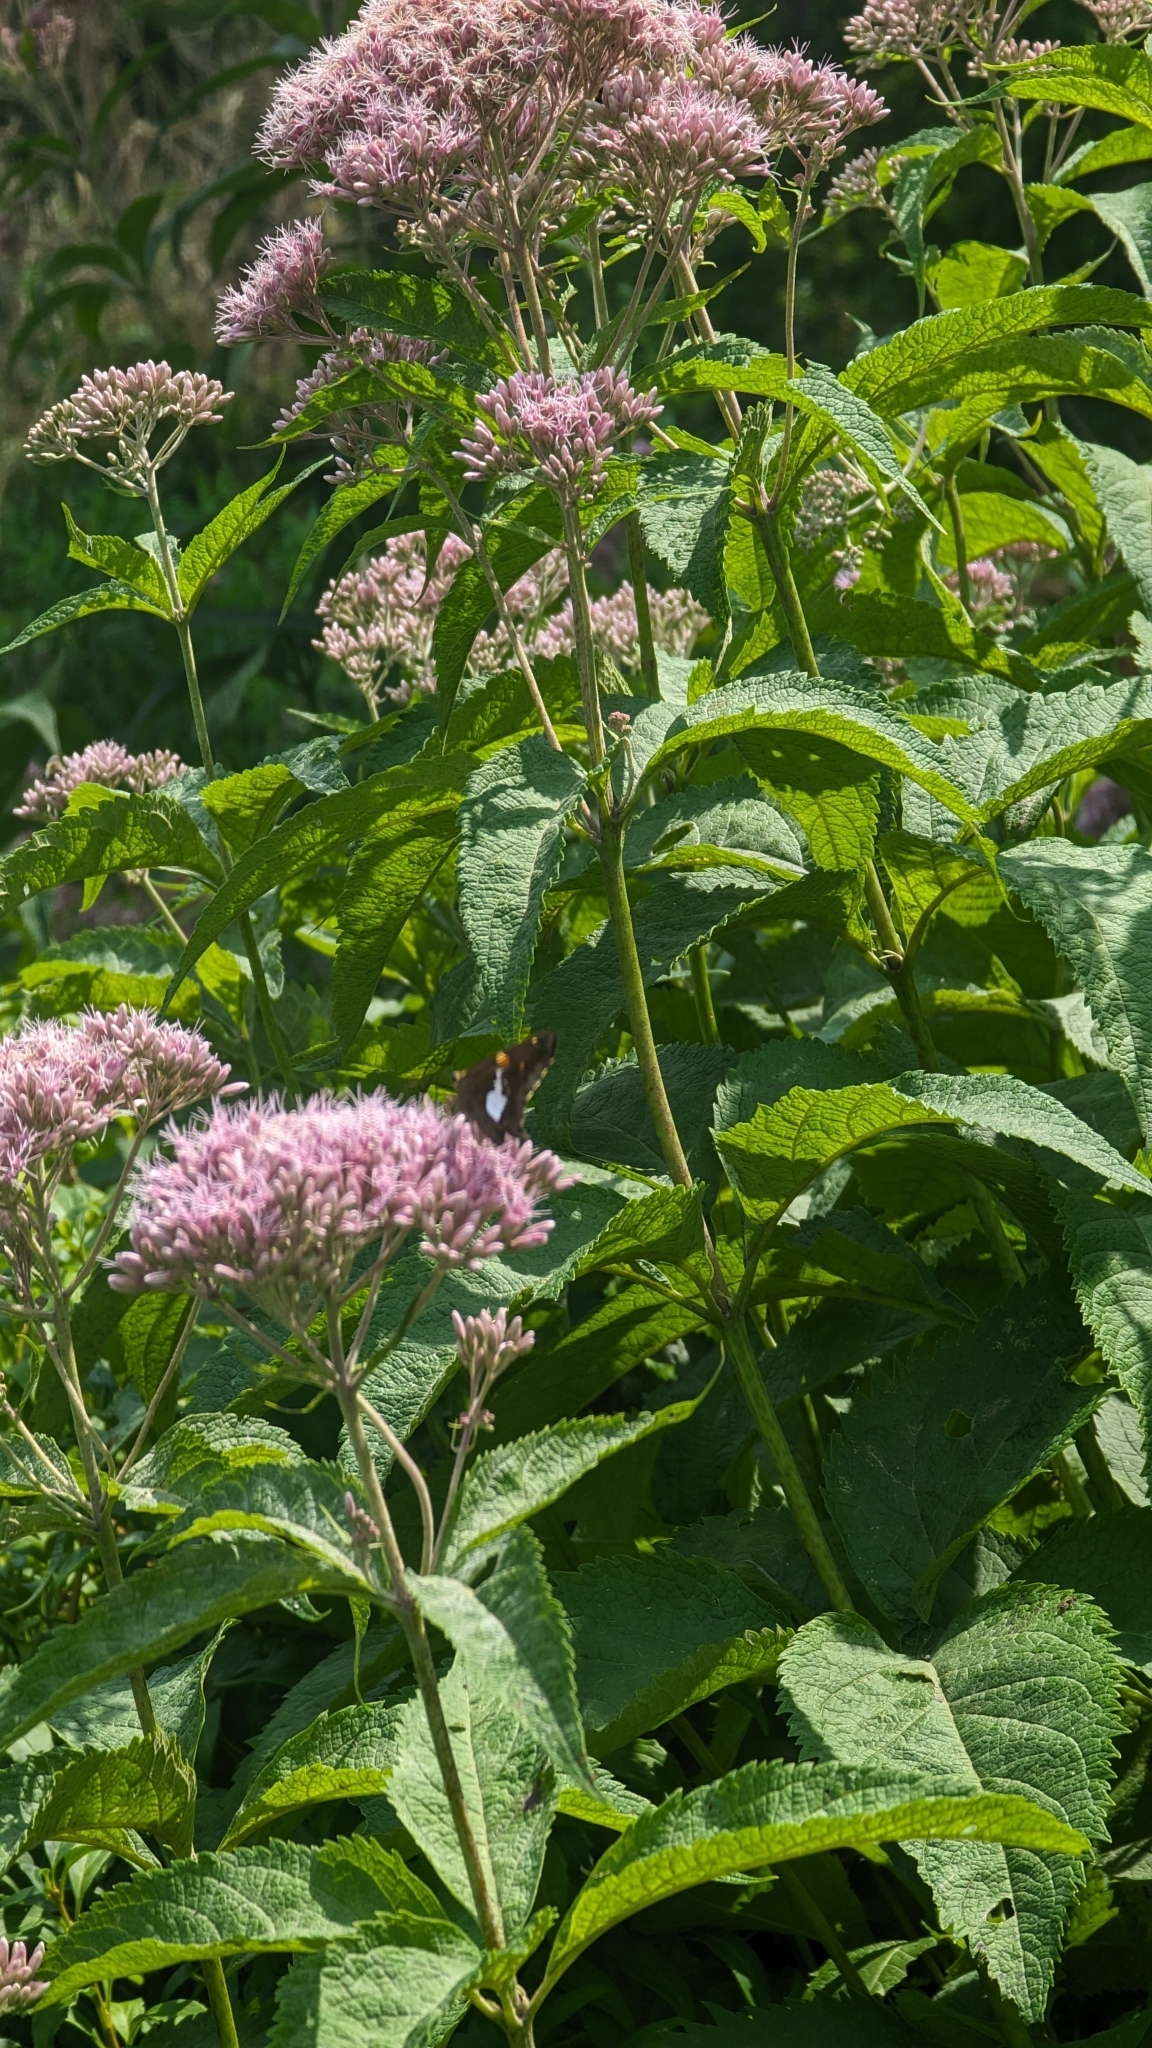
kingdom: Animalia
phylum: Arthropoda
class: Insecta
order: Lepidoptera
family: Hesperiidae
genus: Epargyreus
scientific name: Epargyreus clarus
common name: Silver-spotted skipper
